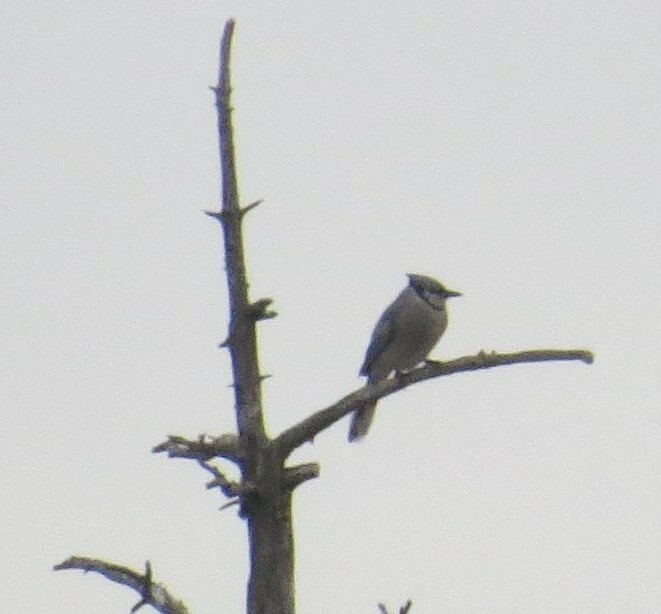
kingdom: Animalia
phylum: Chordata
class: Aves
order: Passeriformes
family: Corvidae
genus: Cyanocitta
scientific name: Cyanocitta cristata
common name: Blue jay
